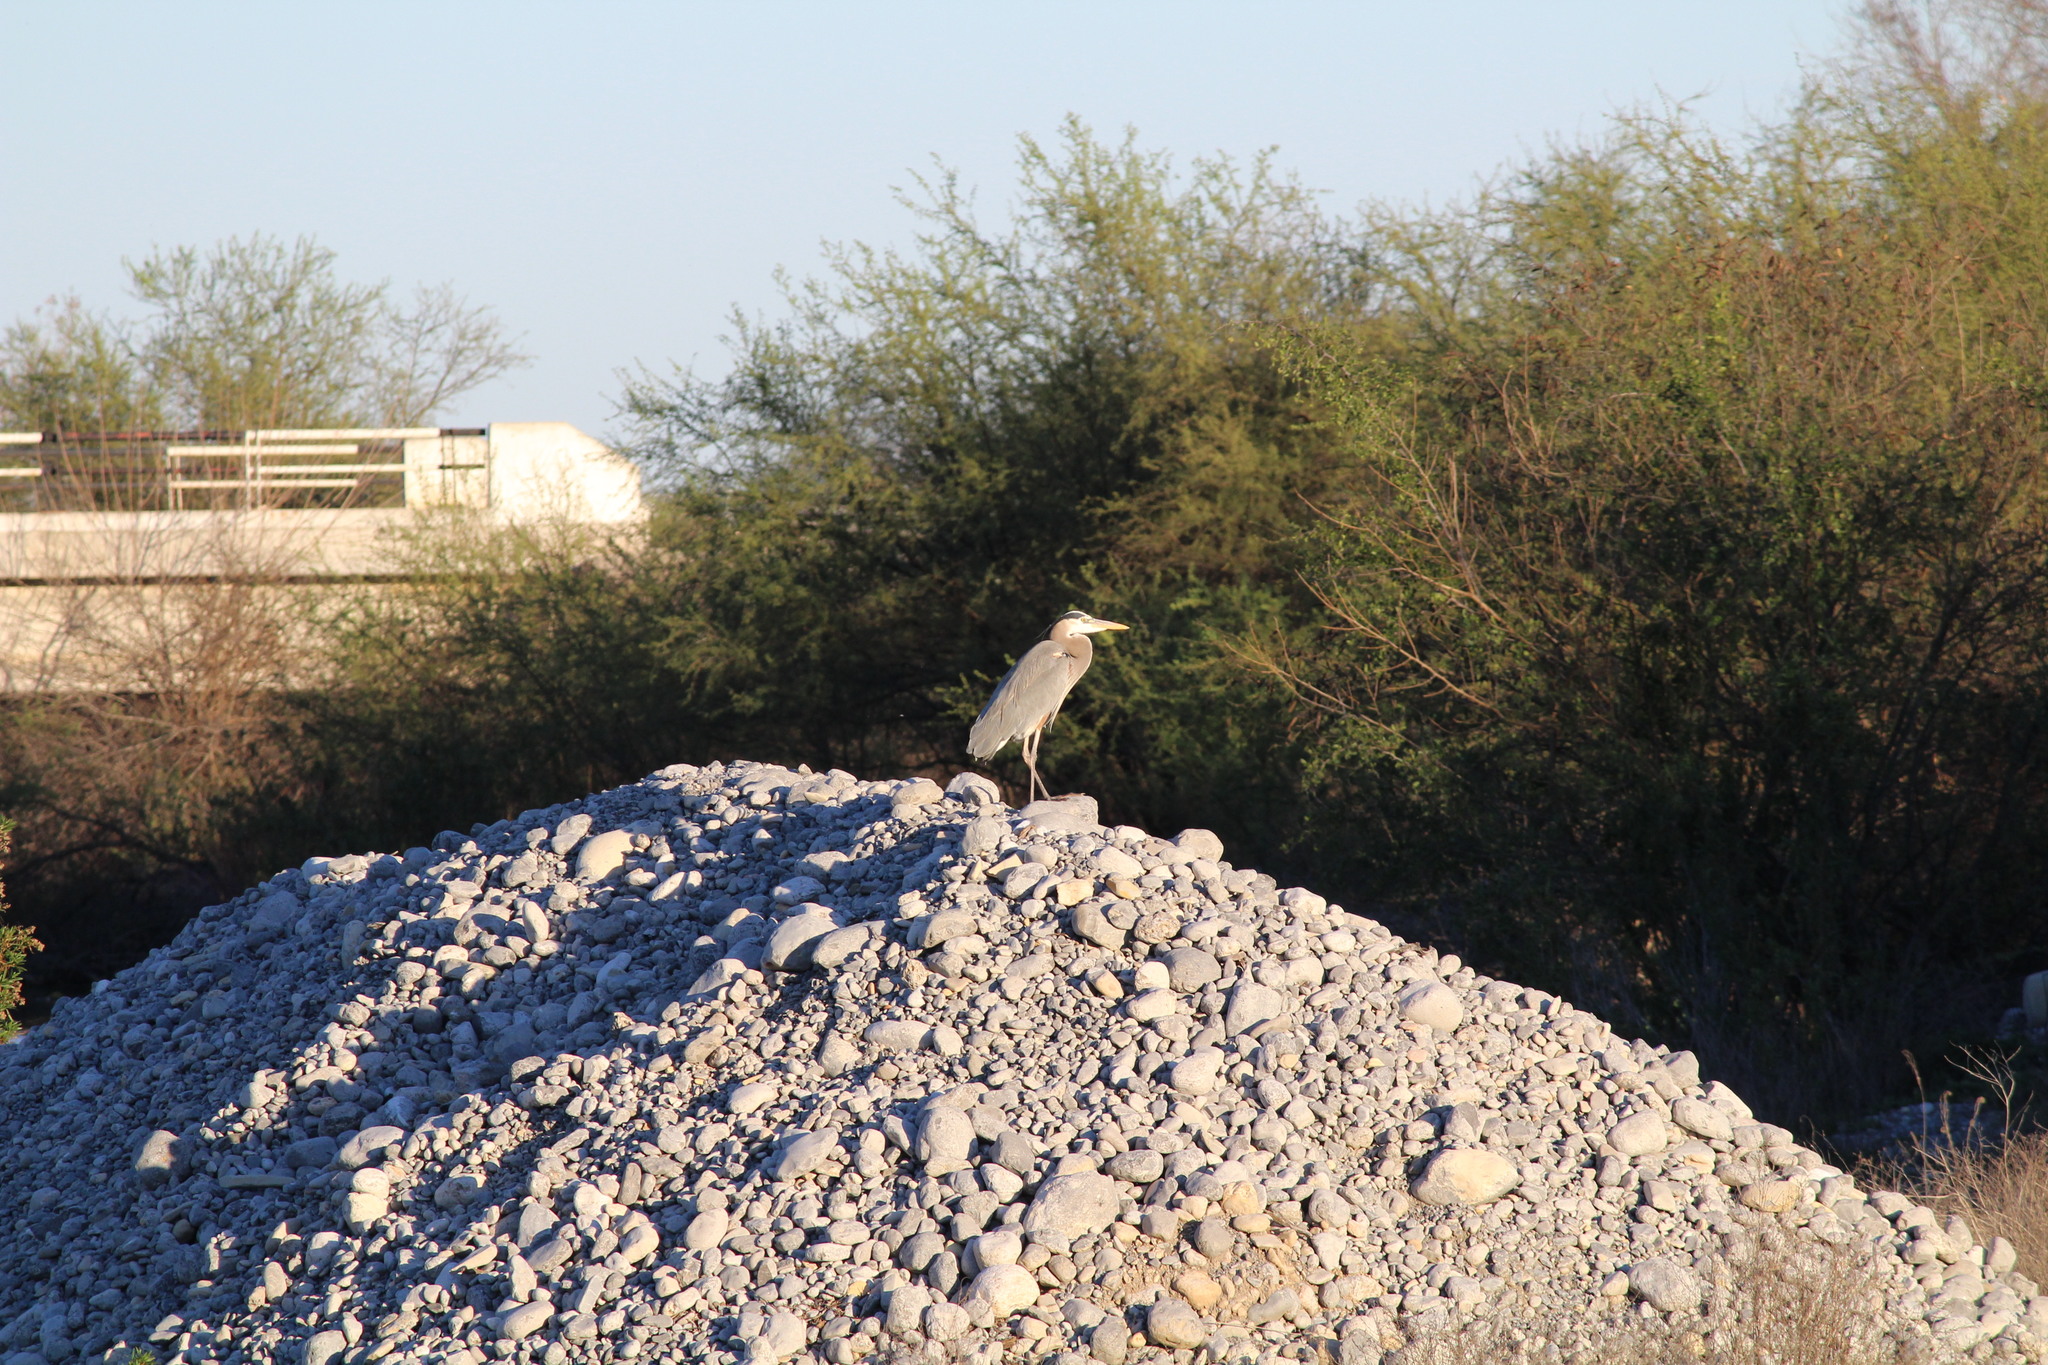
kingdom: Animalia
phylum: Chordata
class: Aves
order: Pelecaniformes
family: Ardeidae
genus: Ardea
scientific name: Ardea herodias
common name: Great blue heron
